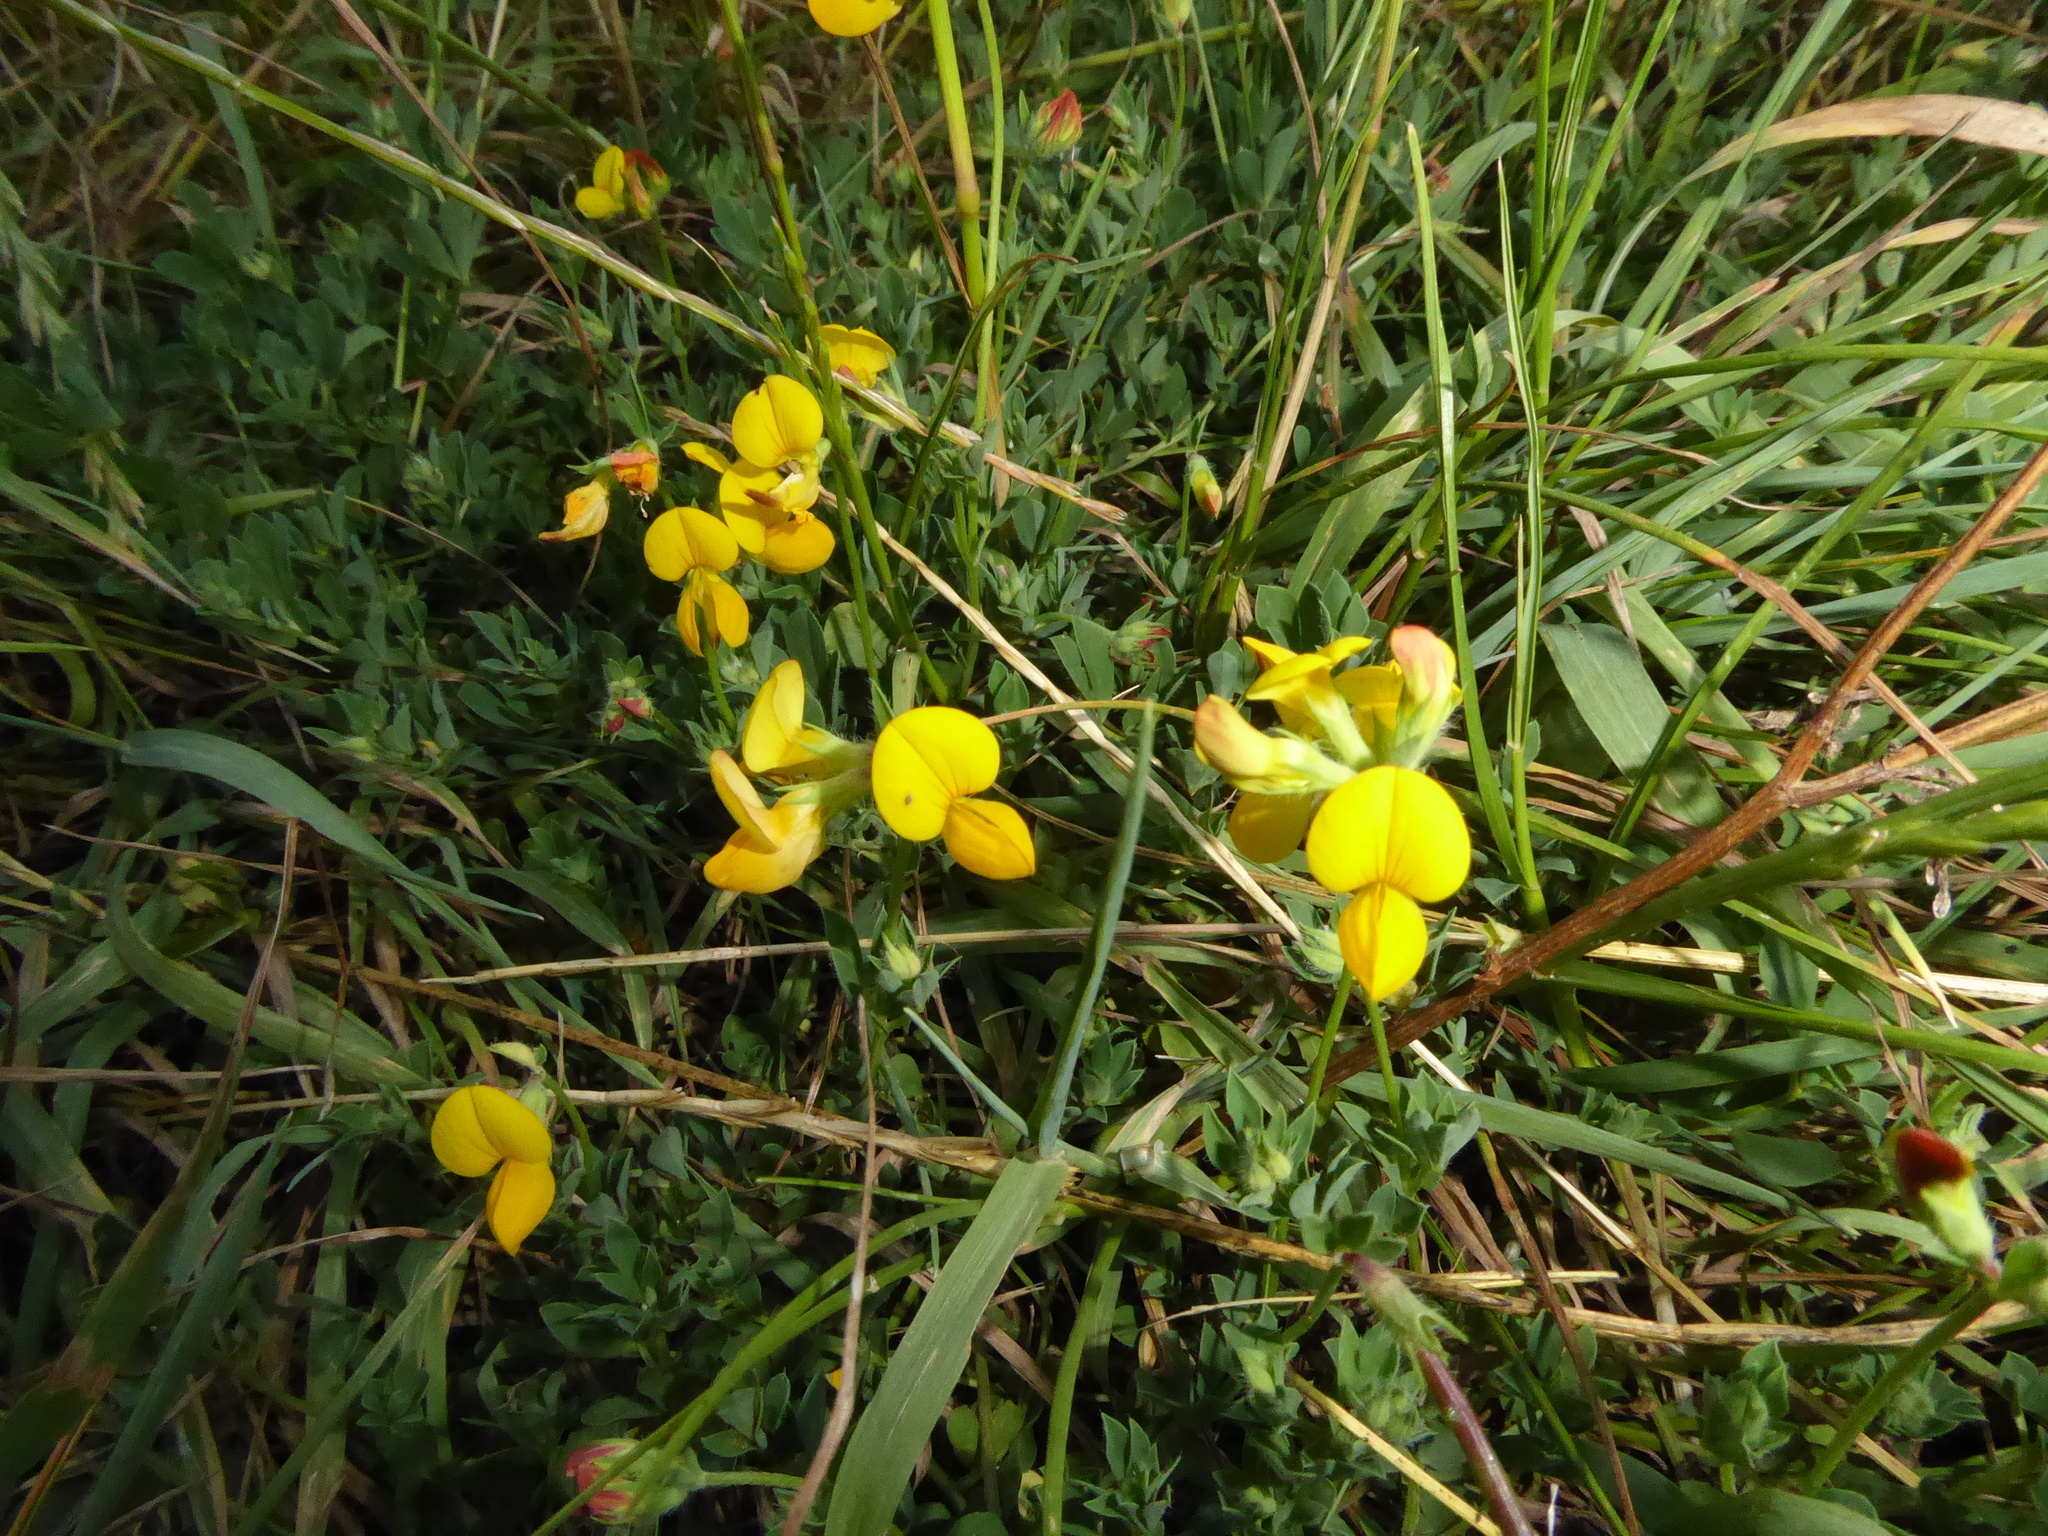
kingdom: Plantae
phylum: Tracheophyta
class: Magnoliopsida
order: Fabales
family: Fabaceae
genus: Lotus
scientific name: Lotus corniculatus
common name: Common bird's-foot-trefoil
